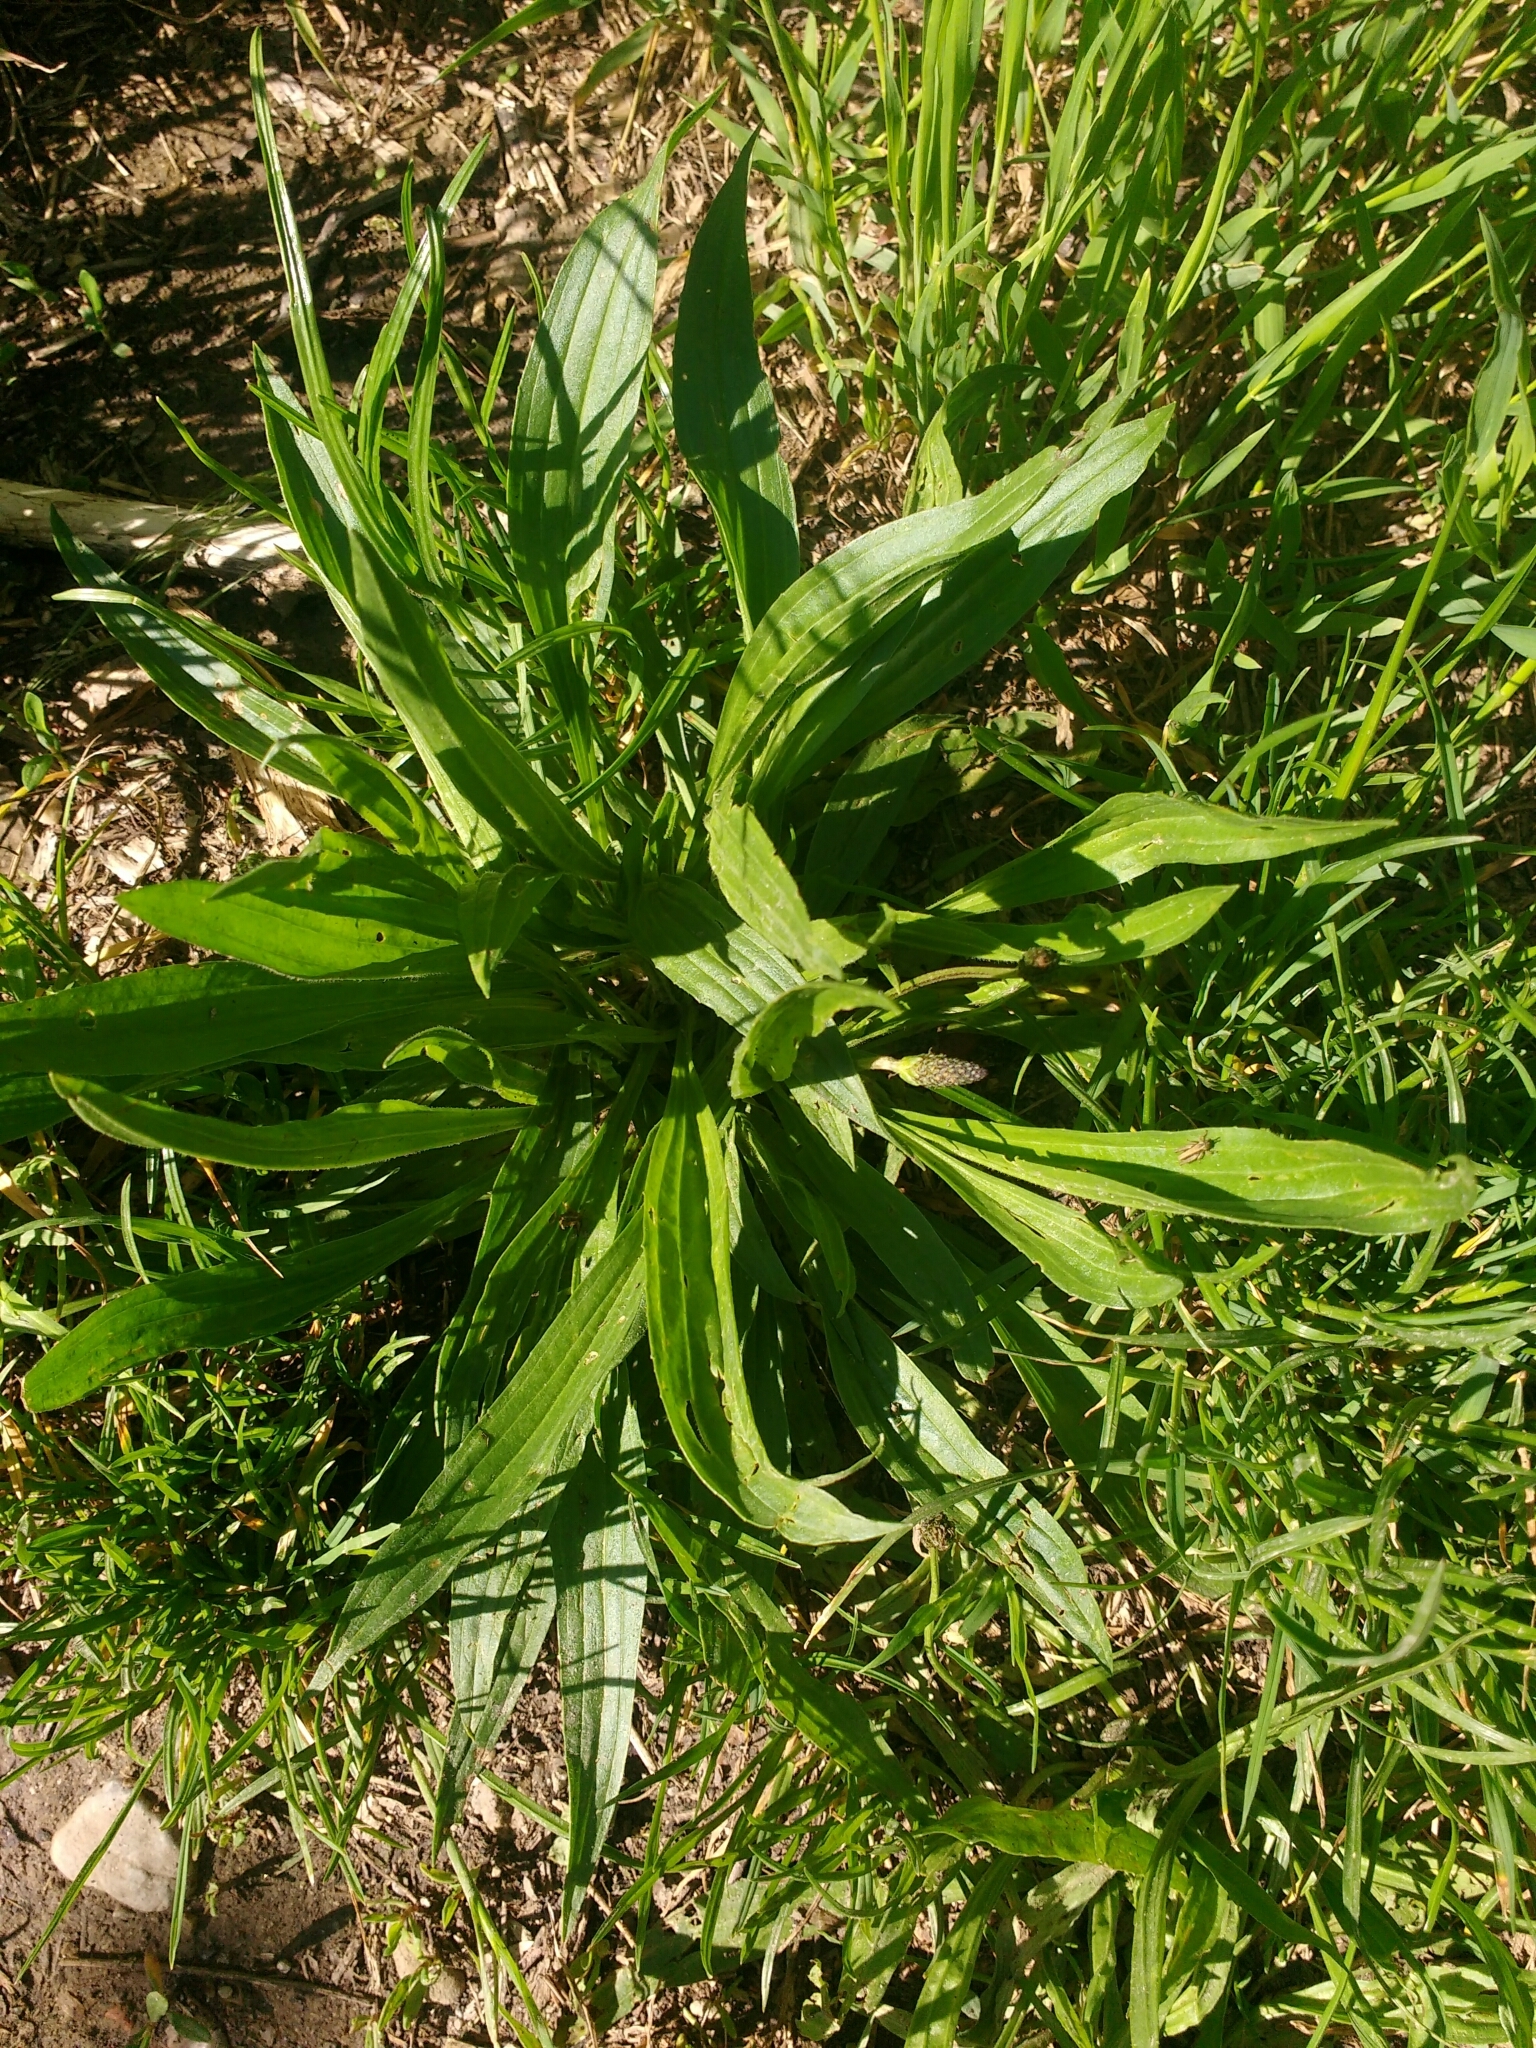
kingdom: Plantae
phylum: Tracheophyta
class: Magnoliopsida
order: Lamiales
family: Plantaginaceae
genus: Plantago
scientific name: Plantago lanceolata
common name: Ribwort plantain
